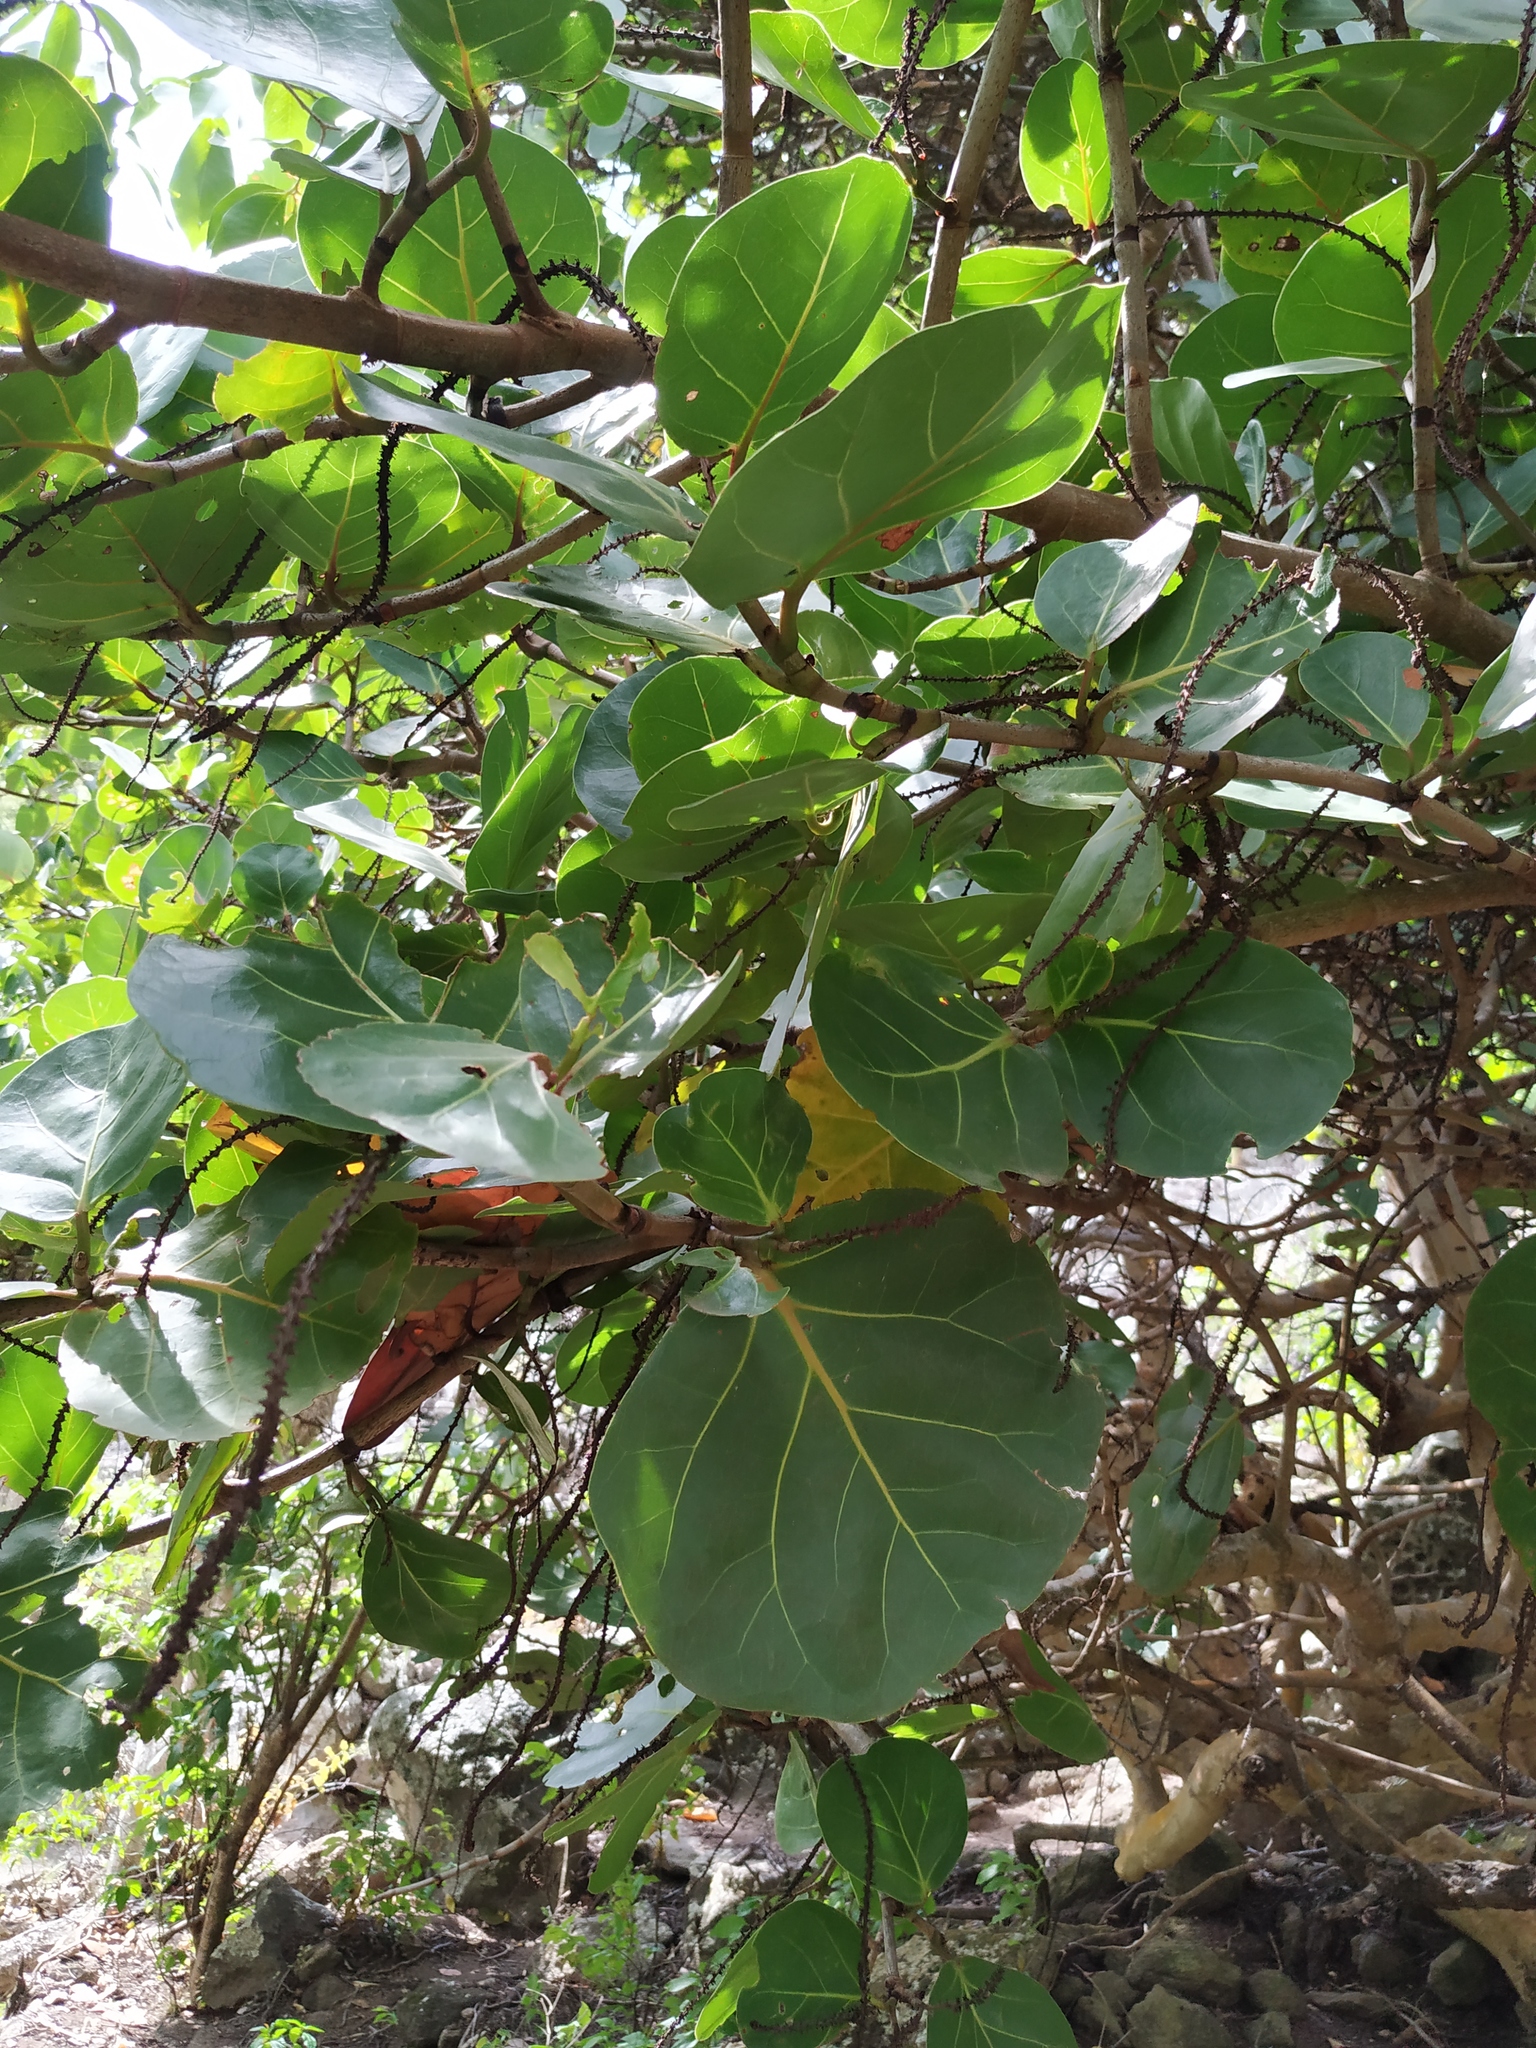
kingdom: Plantae
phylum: Tracheophyta
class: Magnoliopsida
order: Caryophyllales
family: Polygonaceae
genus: Coccoloba
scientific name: Coccoloba uvifera
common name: Seagrape
